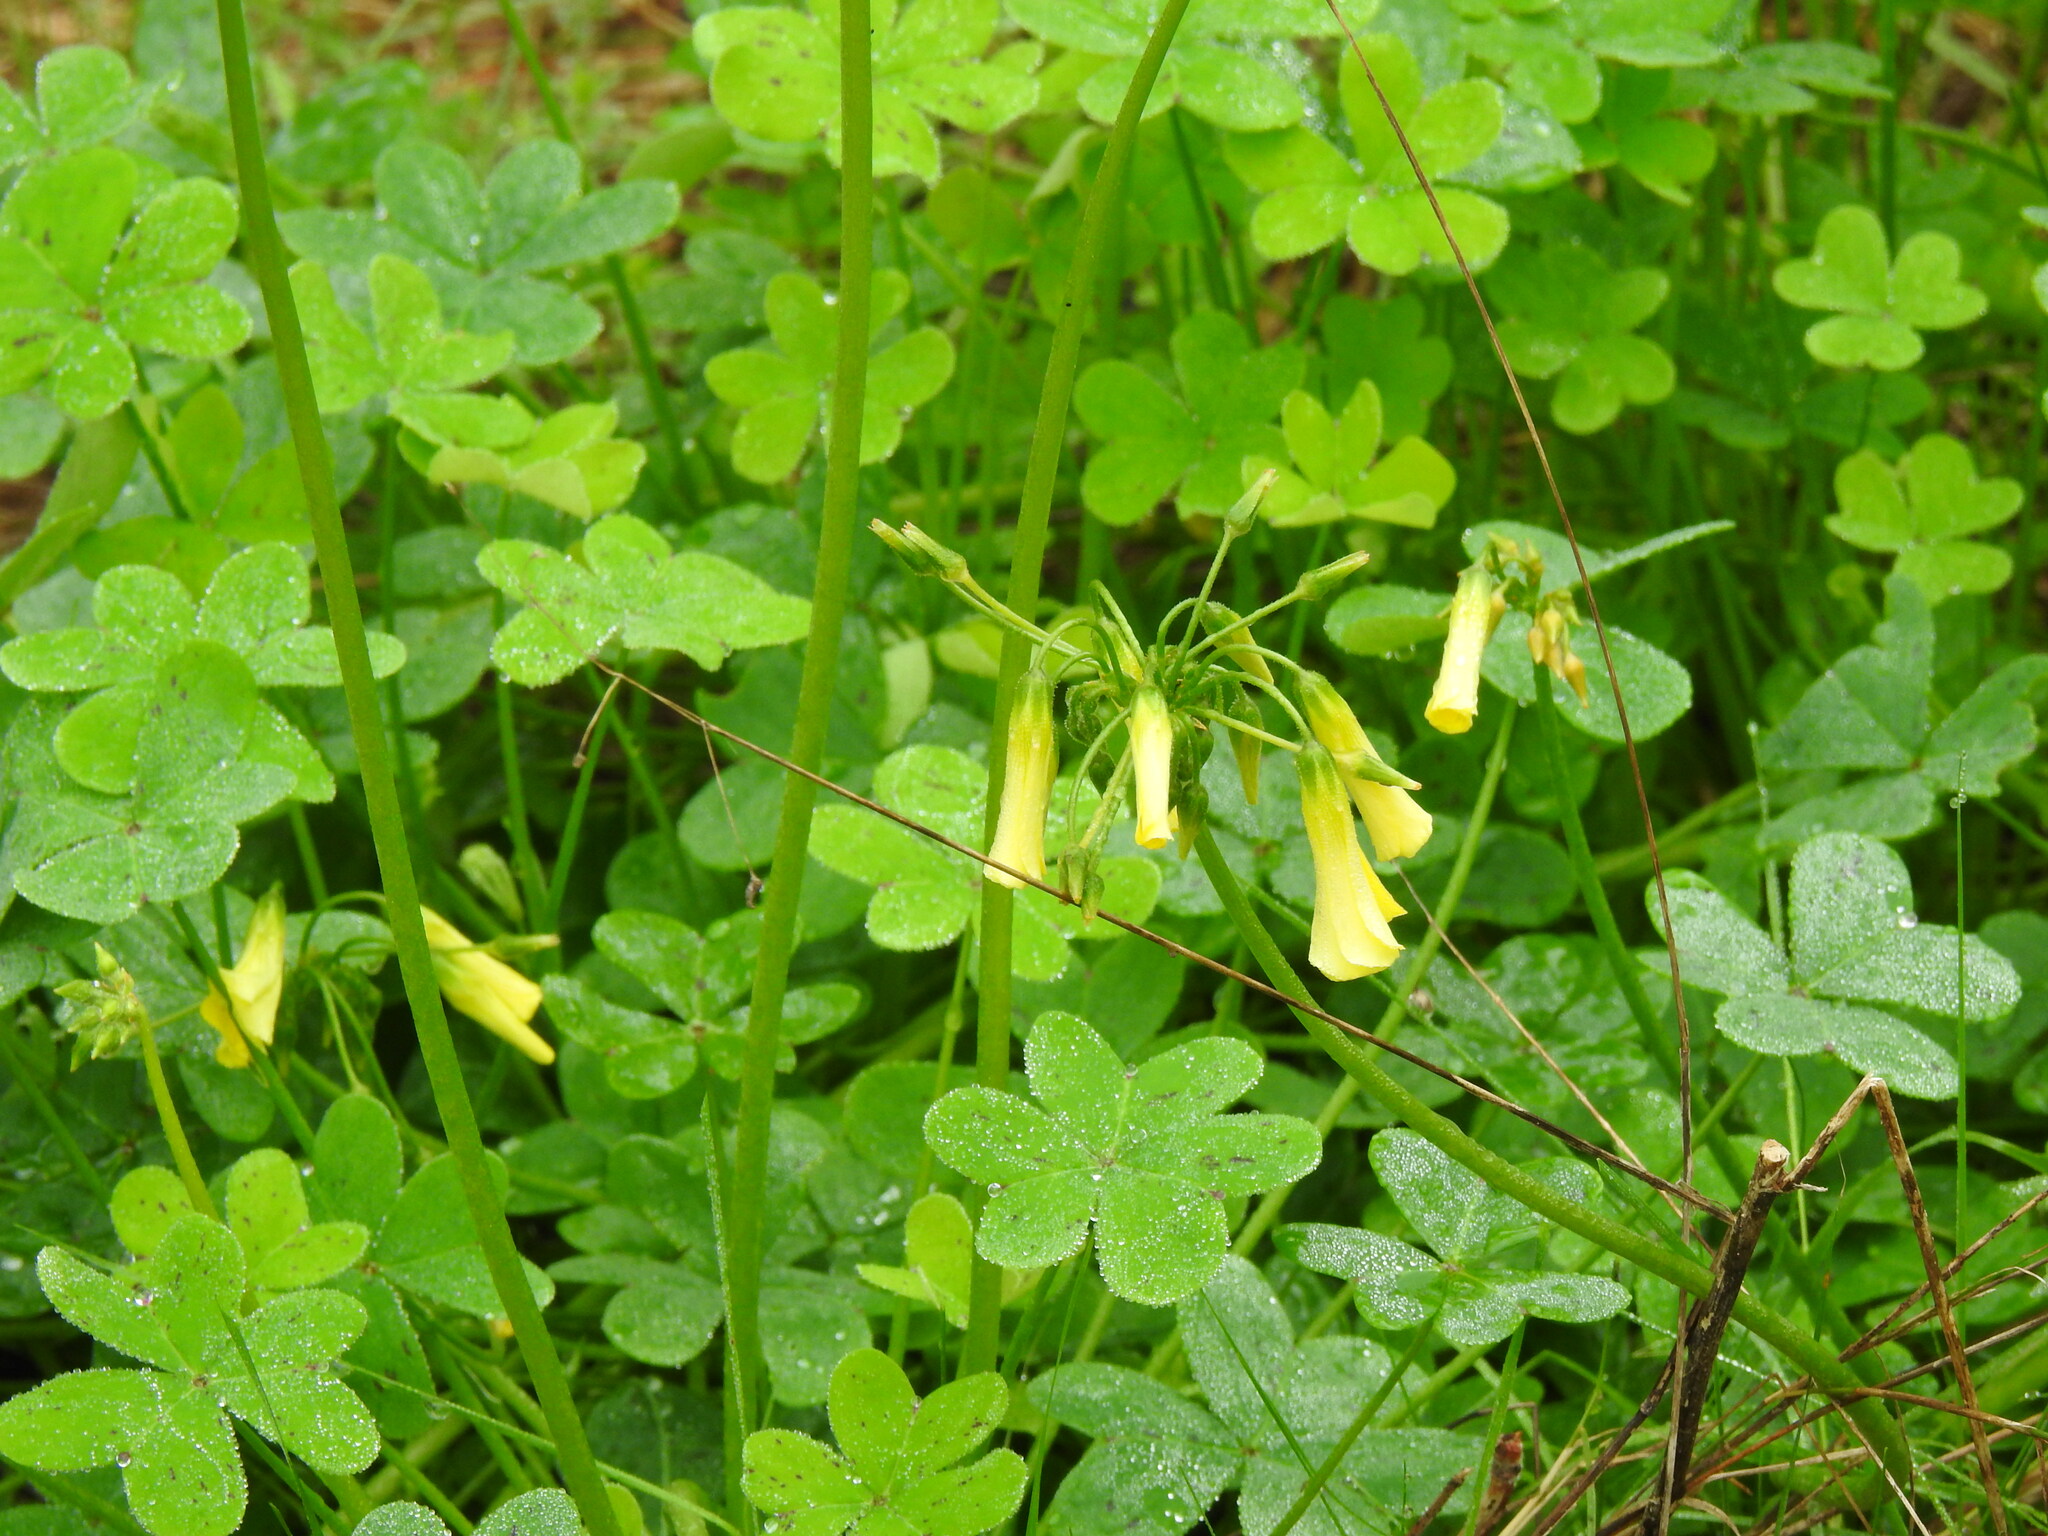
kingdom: Plantae
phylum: Tracheophyta
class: Magnoliopsida
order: Oxalidales
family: Oxalidaceae
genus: Oxalis
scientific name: Oxalis pes-caprae
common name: Bermuda-buttercup
